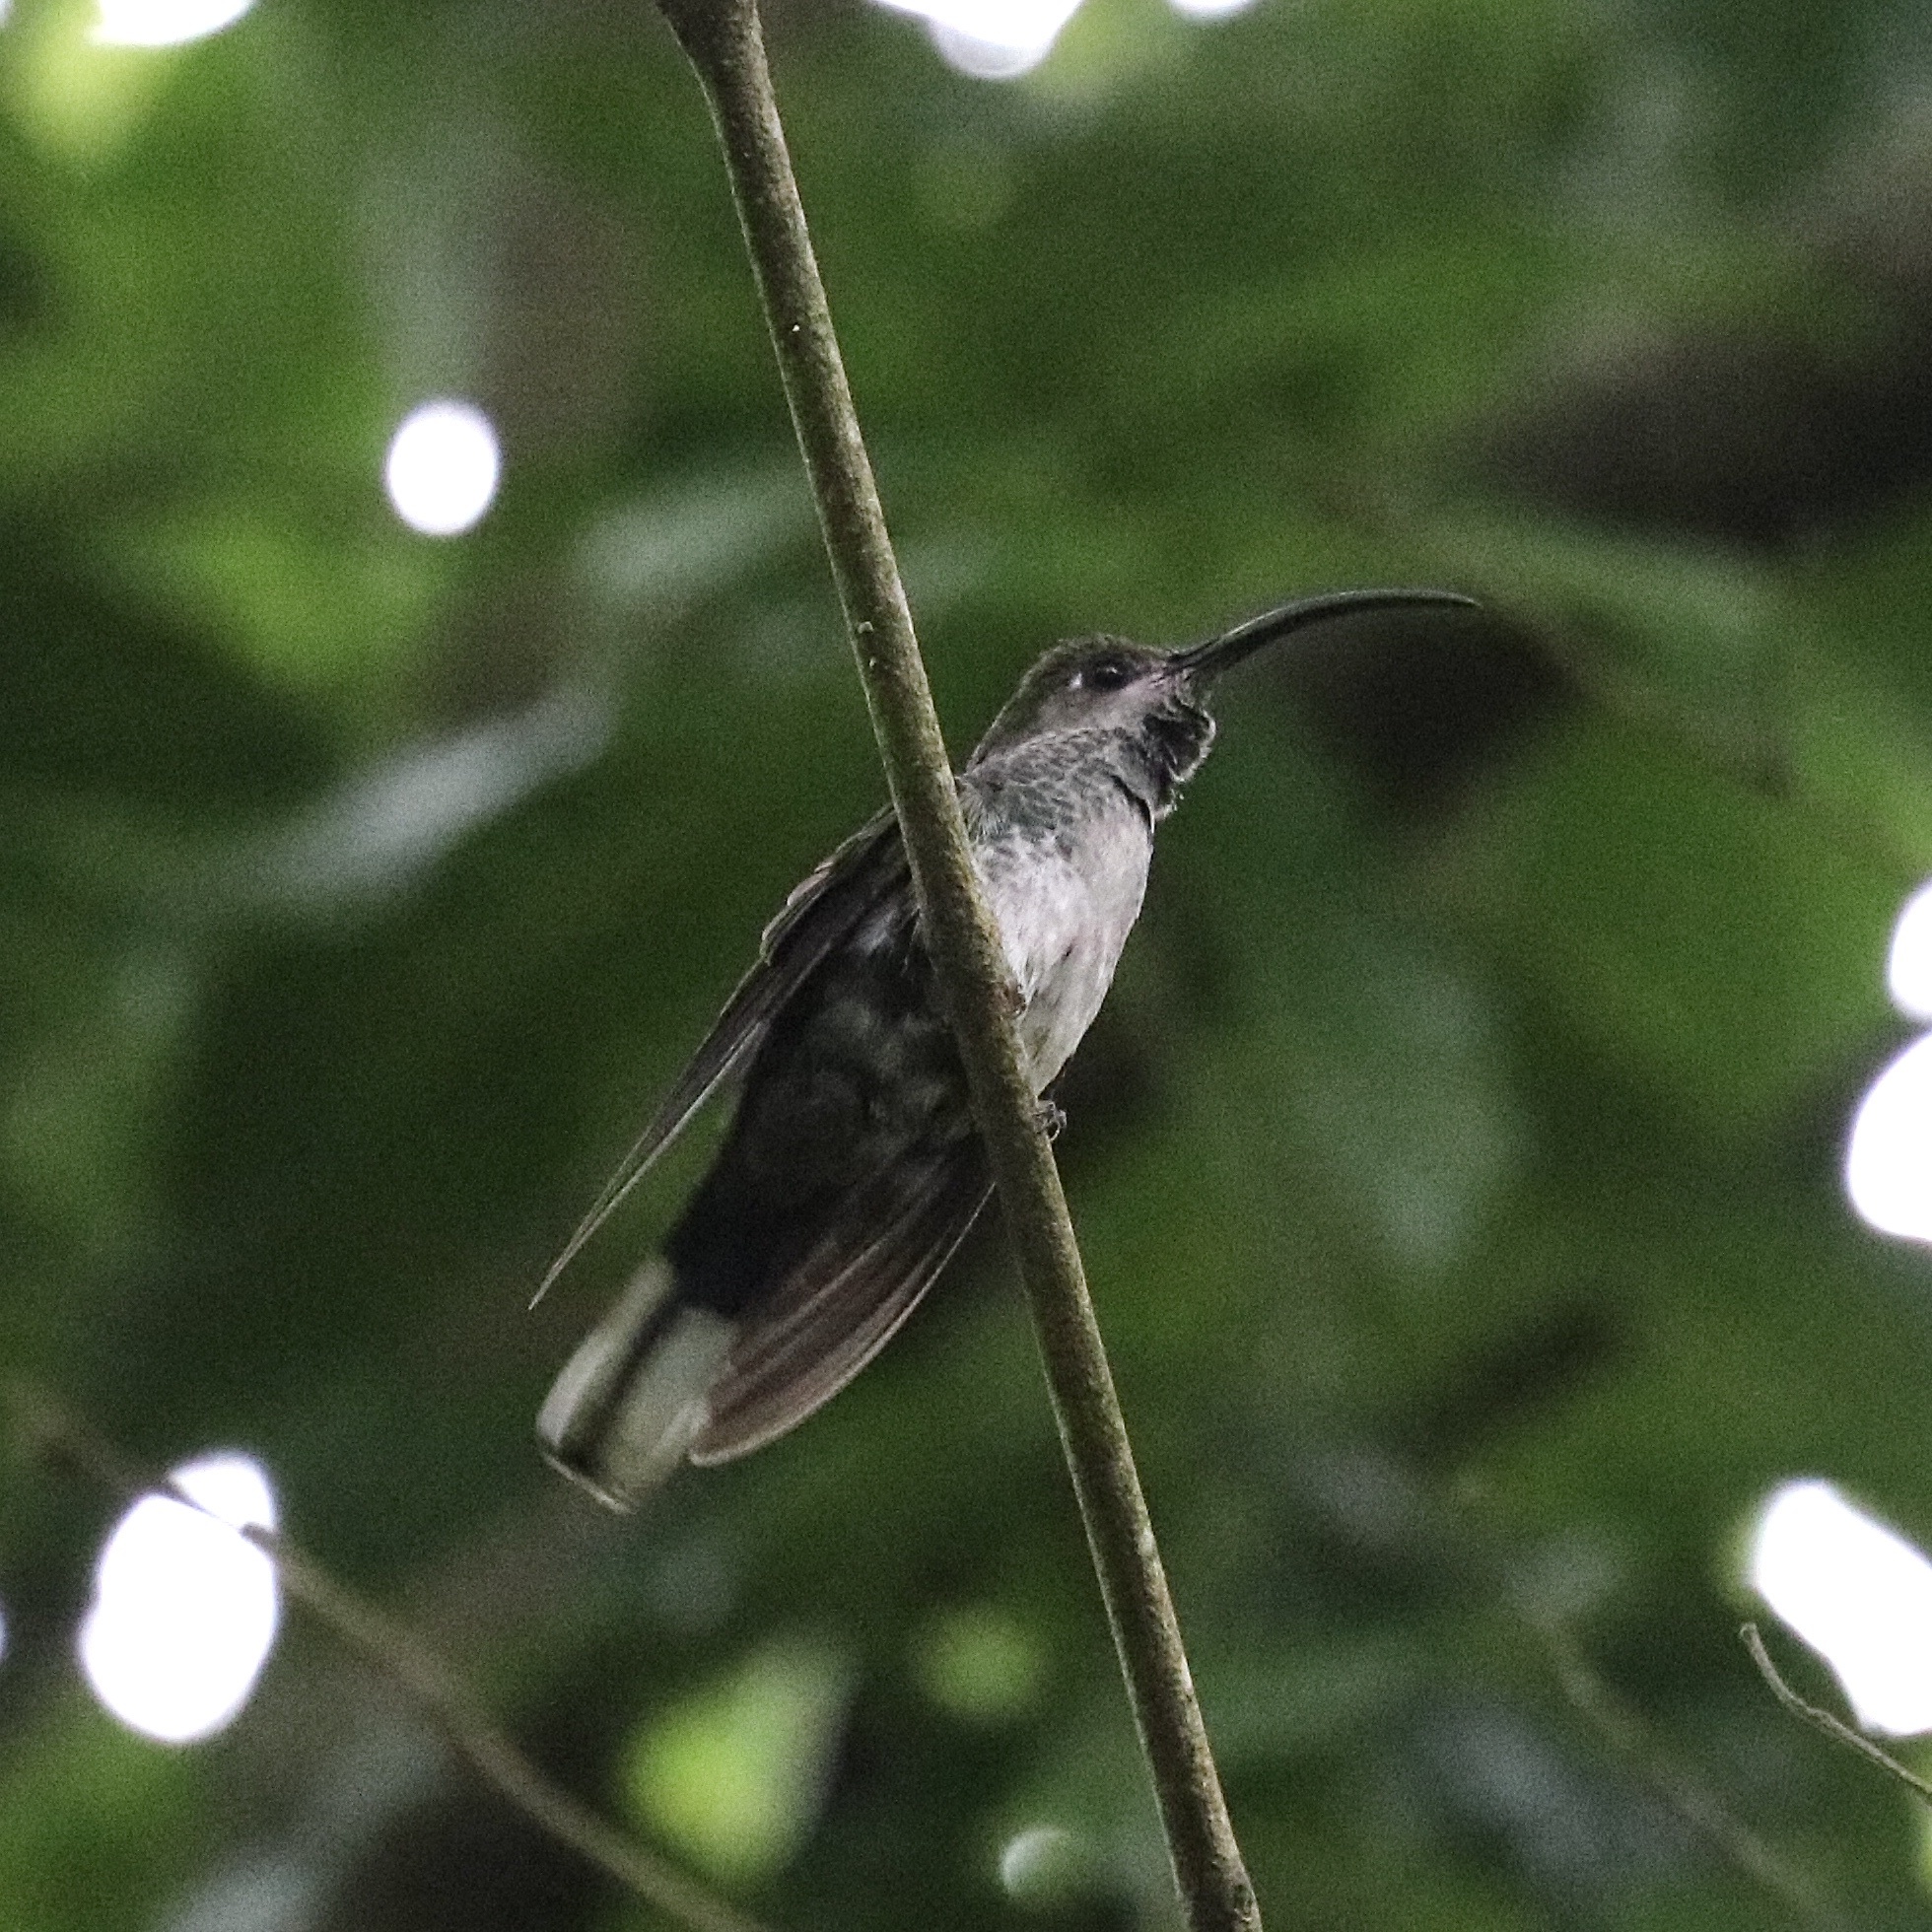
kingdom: Animalia
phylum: Chordata
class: Aves
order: Apodiformes
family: Trochilidae
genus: Campylopterus
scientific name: Campylopterus hemileucurus
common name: Violet sabrewing
